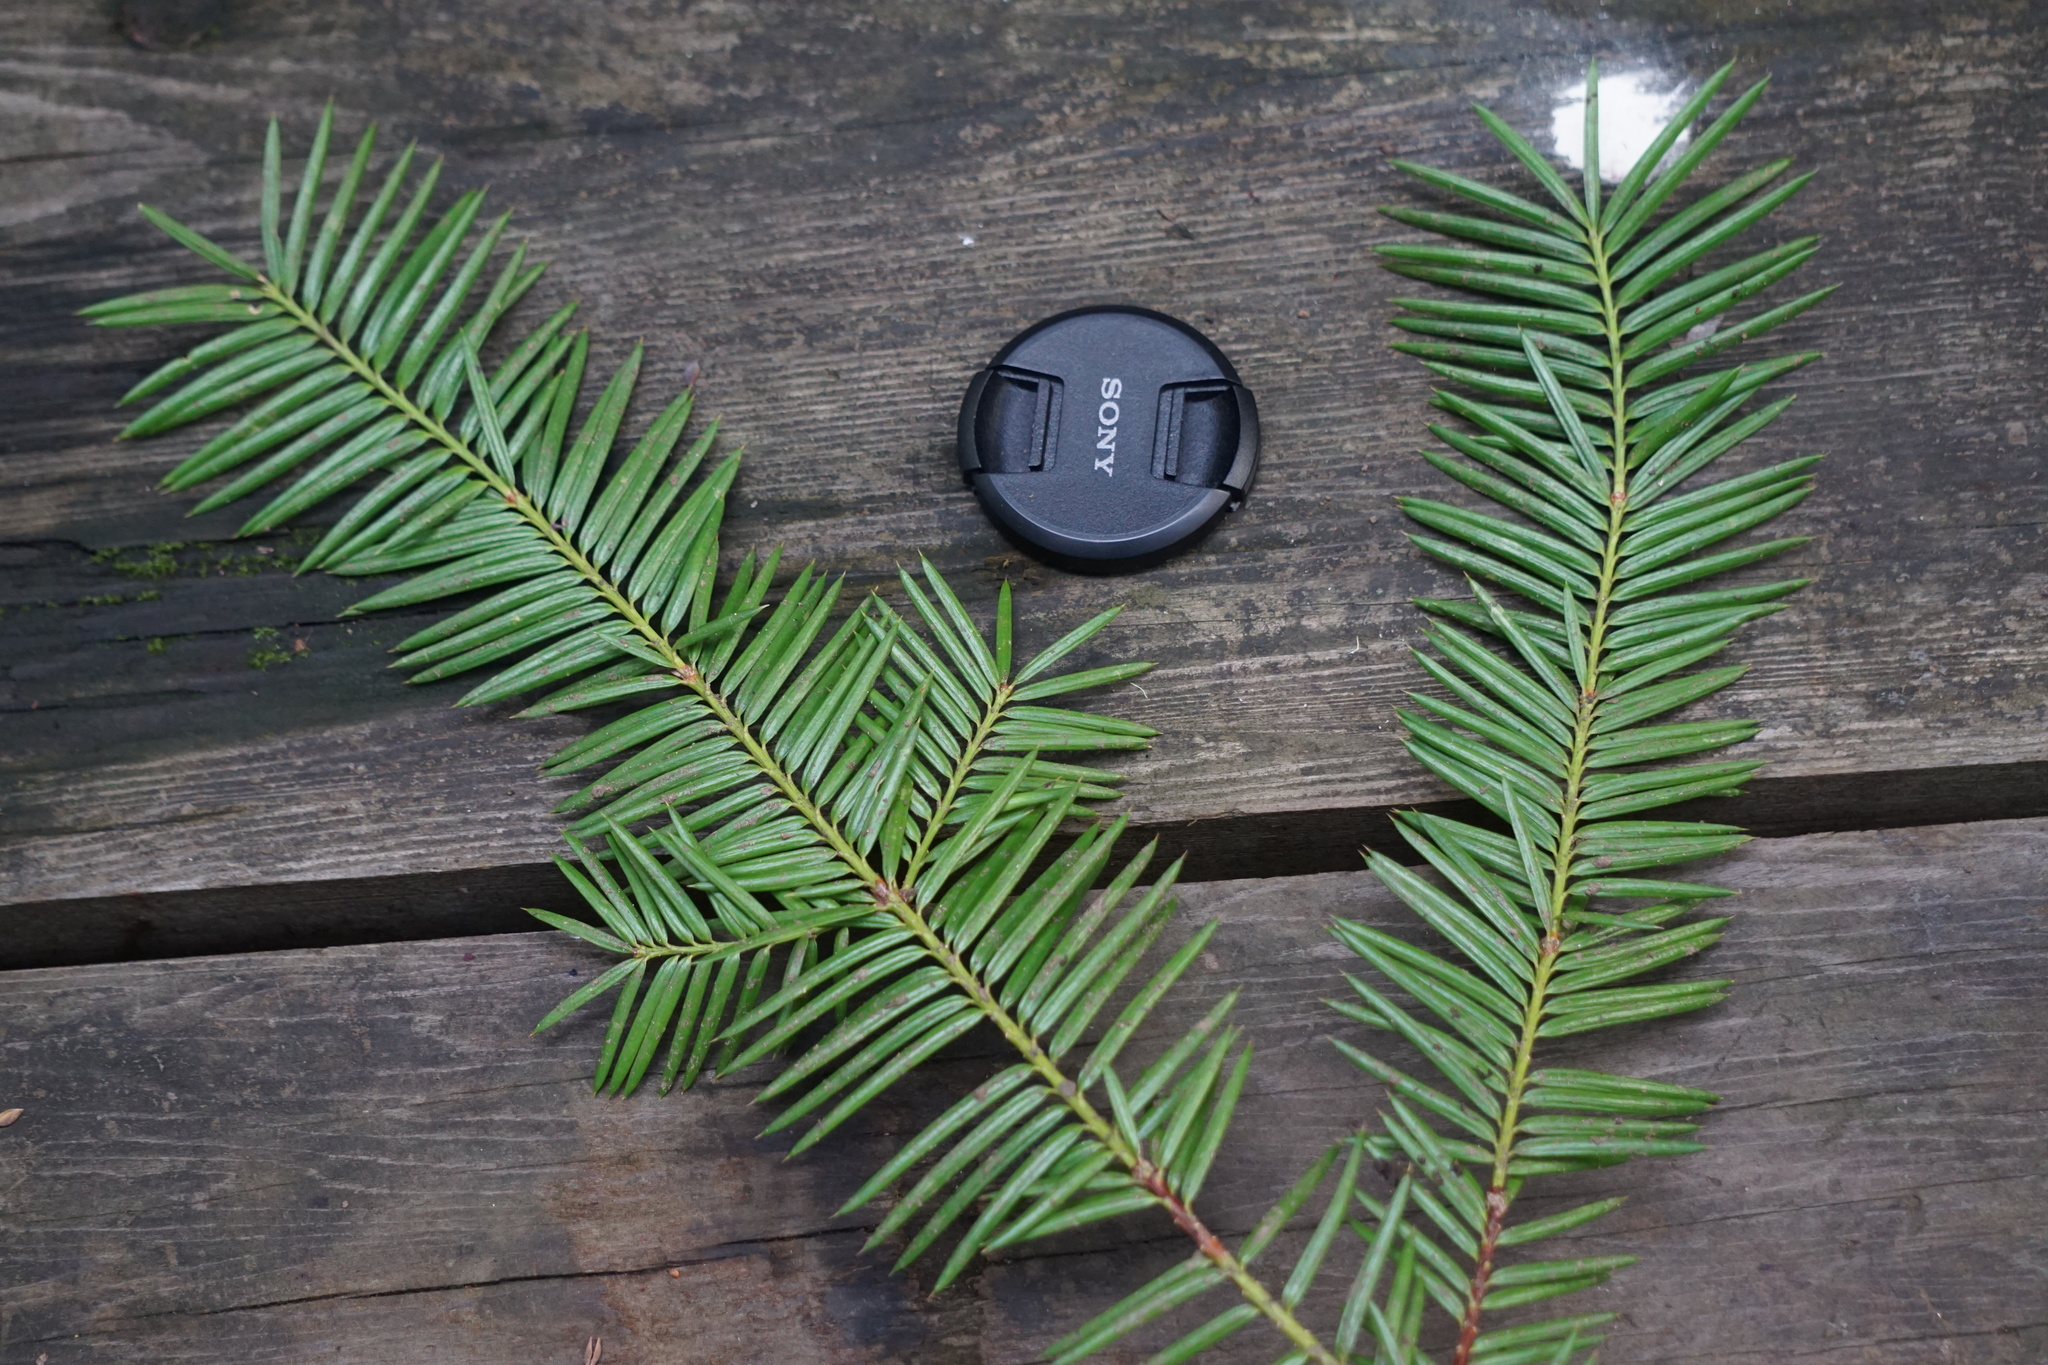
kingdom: Plantae
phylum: Tracheophyta
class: Pinopsida
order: Pinales
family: Taxaceae
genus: Torreya
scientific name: Torreya californica
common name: California torreya
